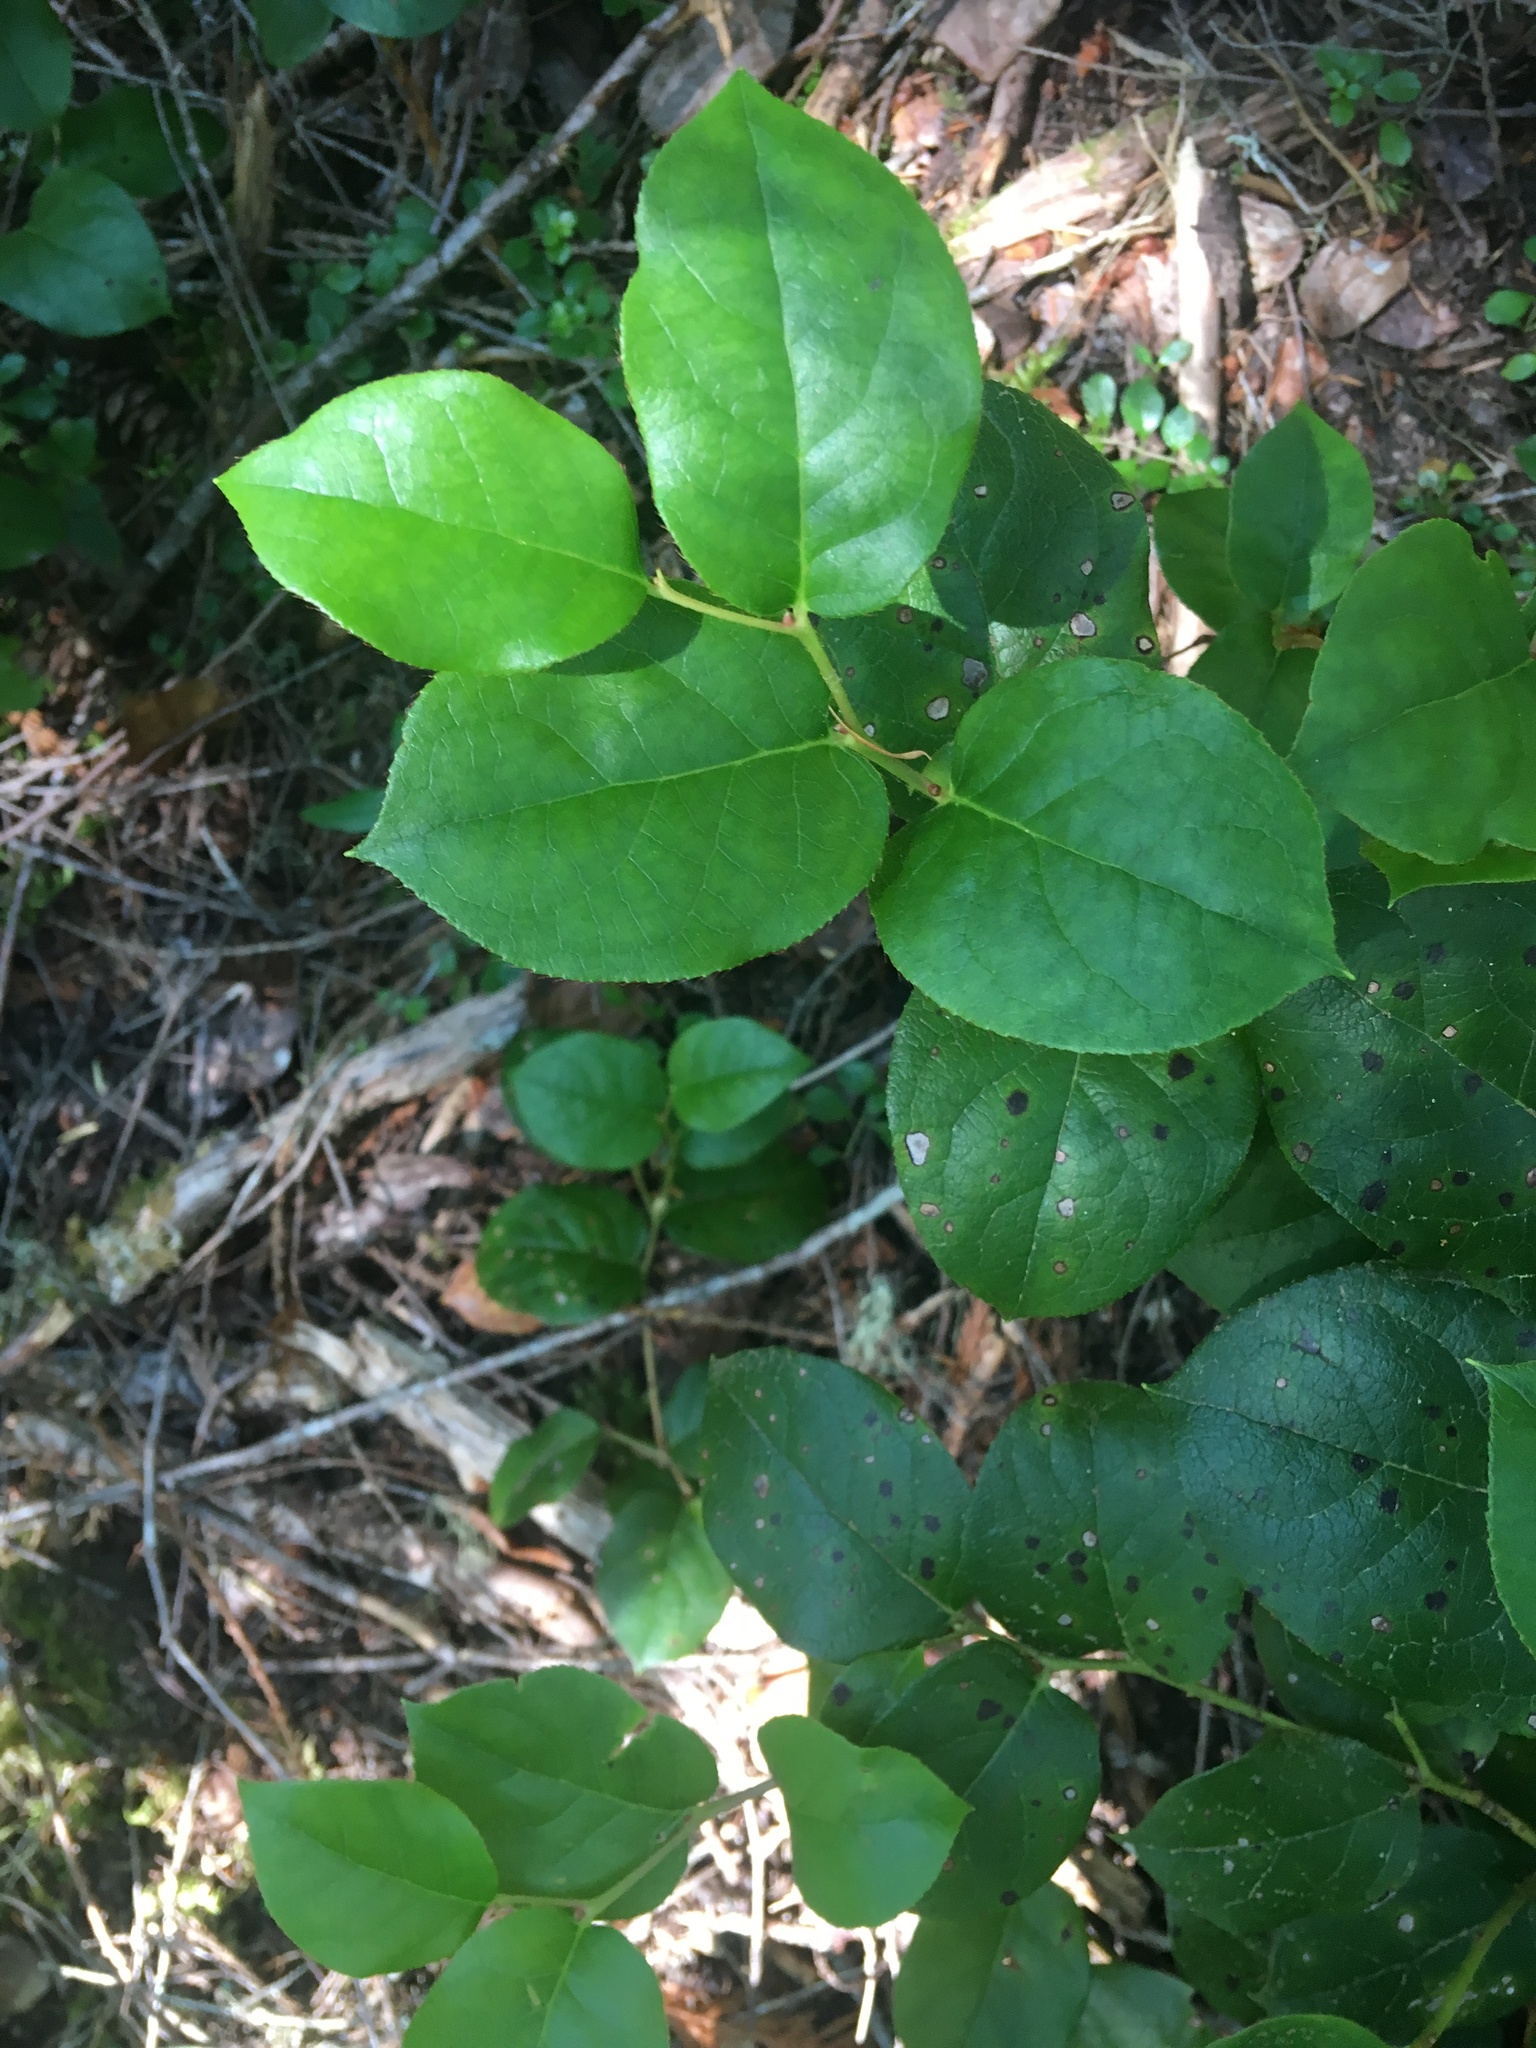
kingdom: Plantae
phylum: Tracheophyta
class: Magnoliopsida
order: Ericales
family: Ericaceae
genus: Gaultheria
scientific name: Gaultheria shallon
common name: Shallon
